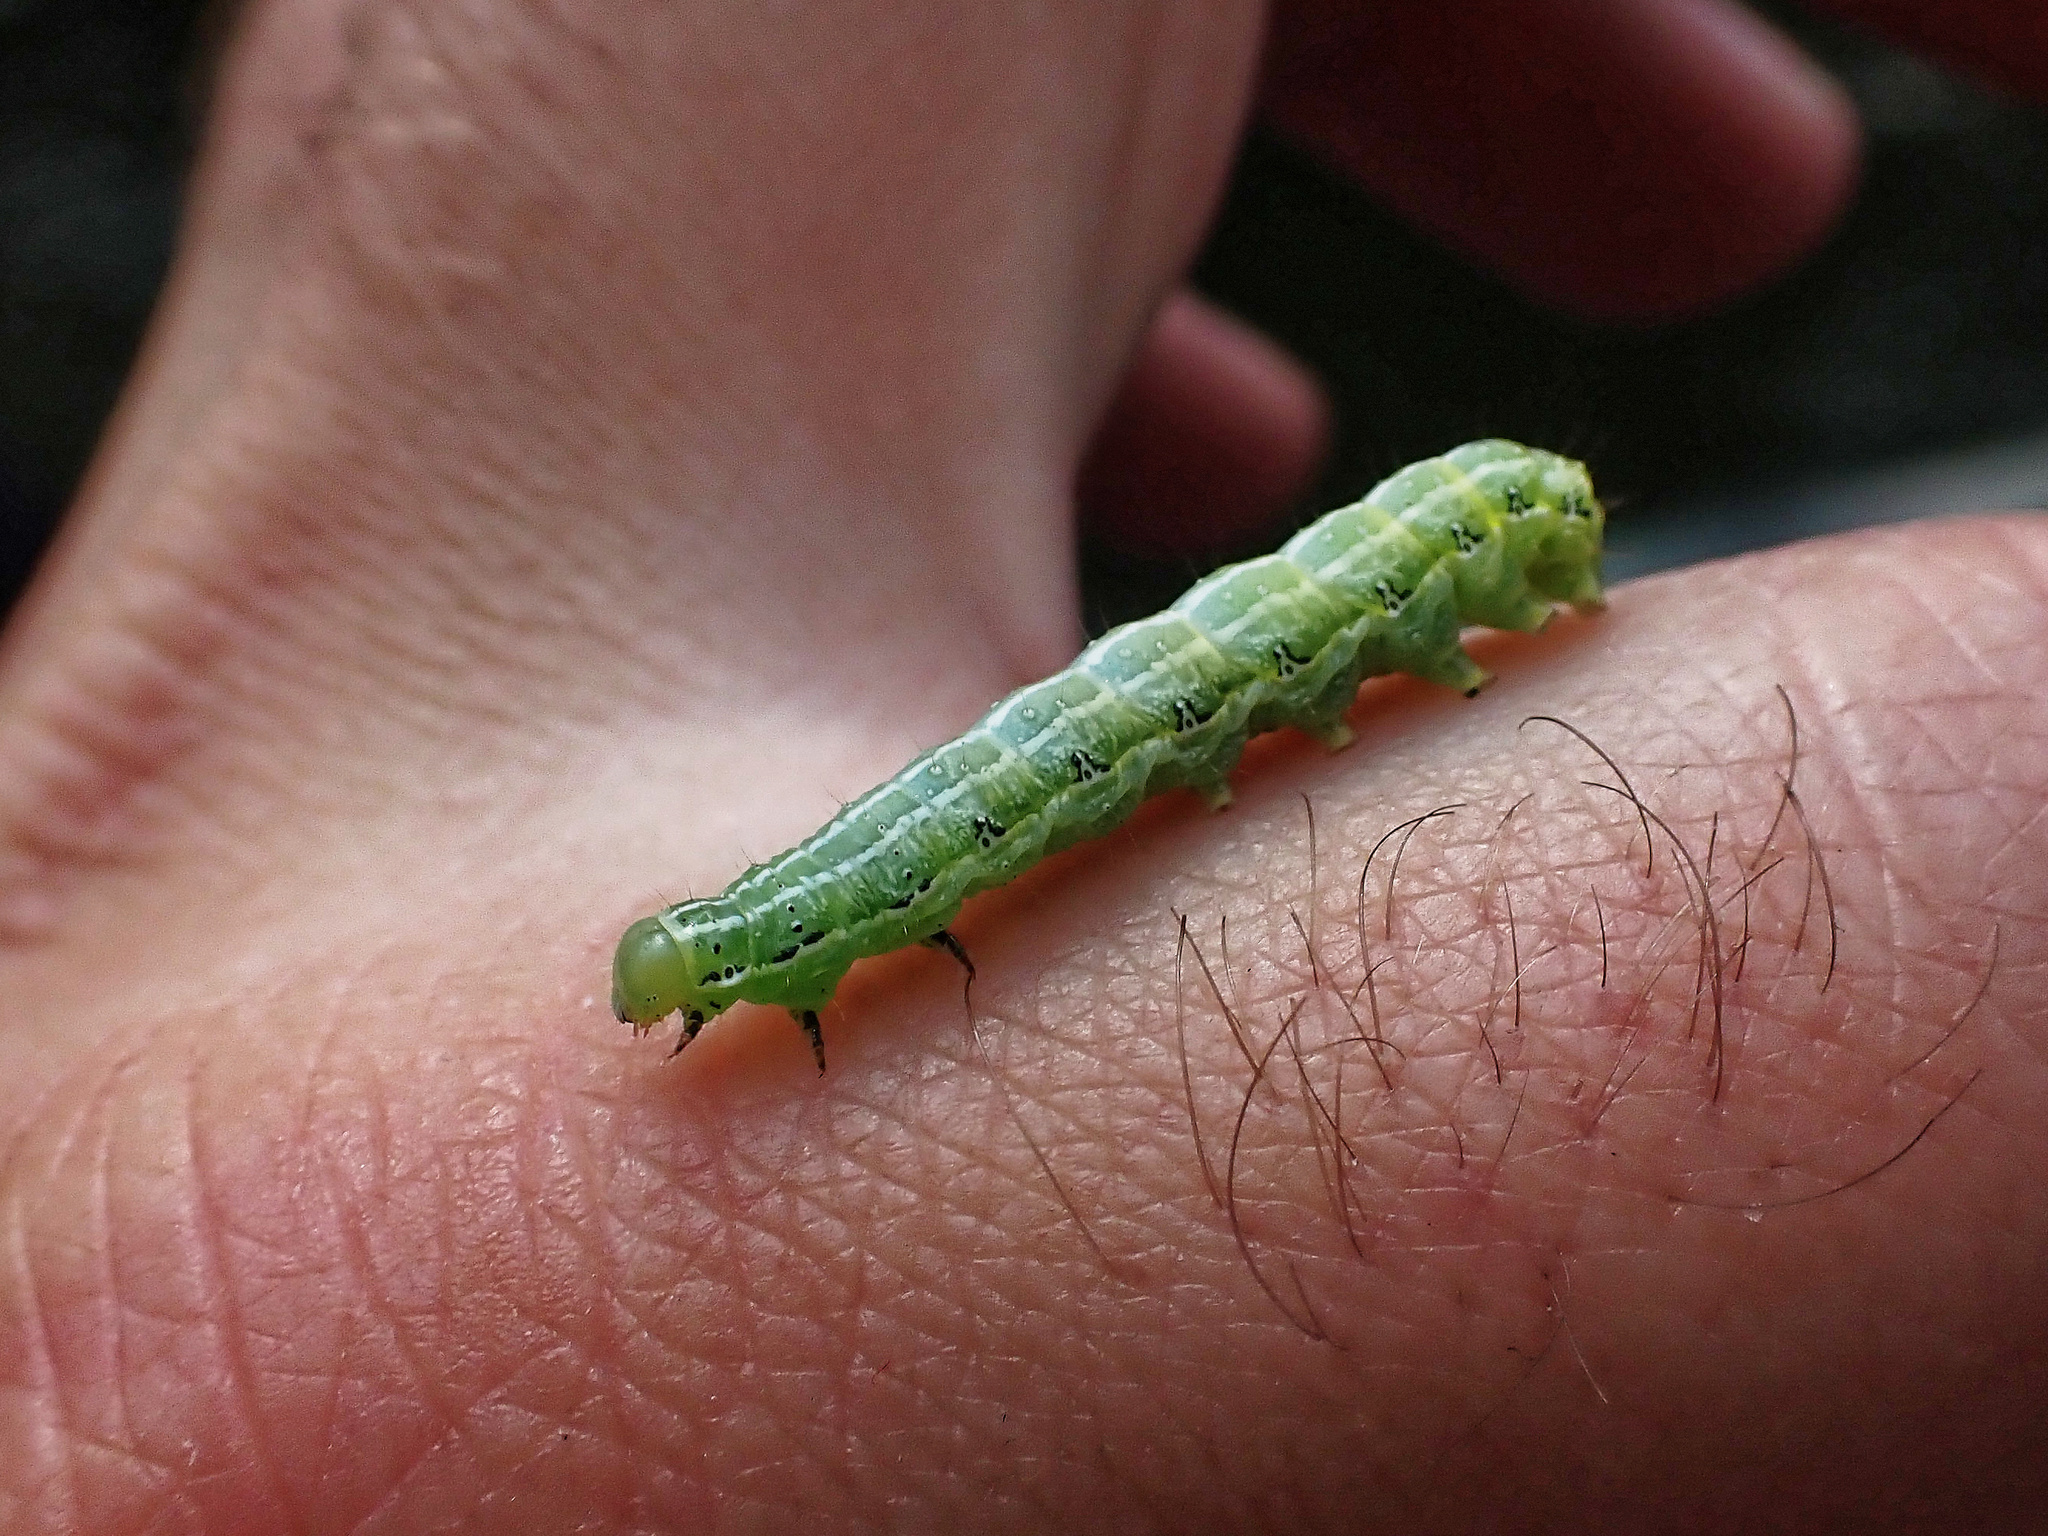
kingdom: Animalia
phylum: Arthropoda
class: Insecta
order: Lepidoptera
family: Noctuidae
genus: Cosmia
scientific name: Cosmia affinis
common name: Lesser-spotted pinion
